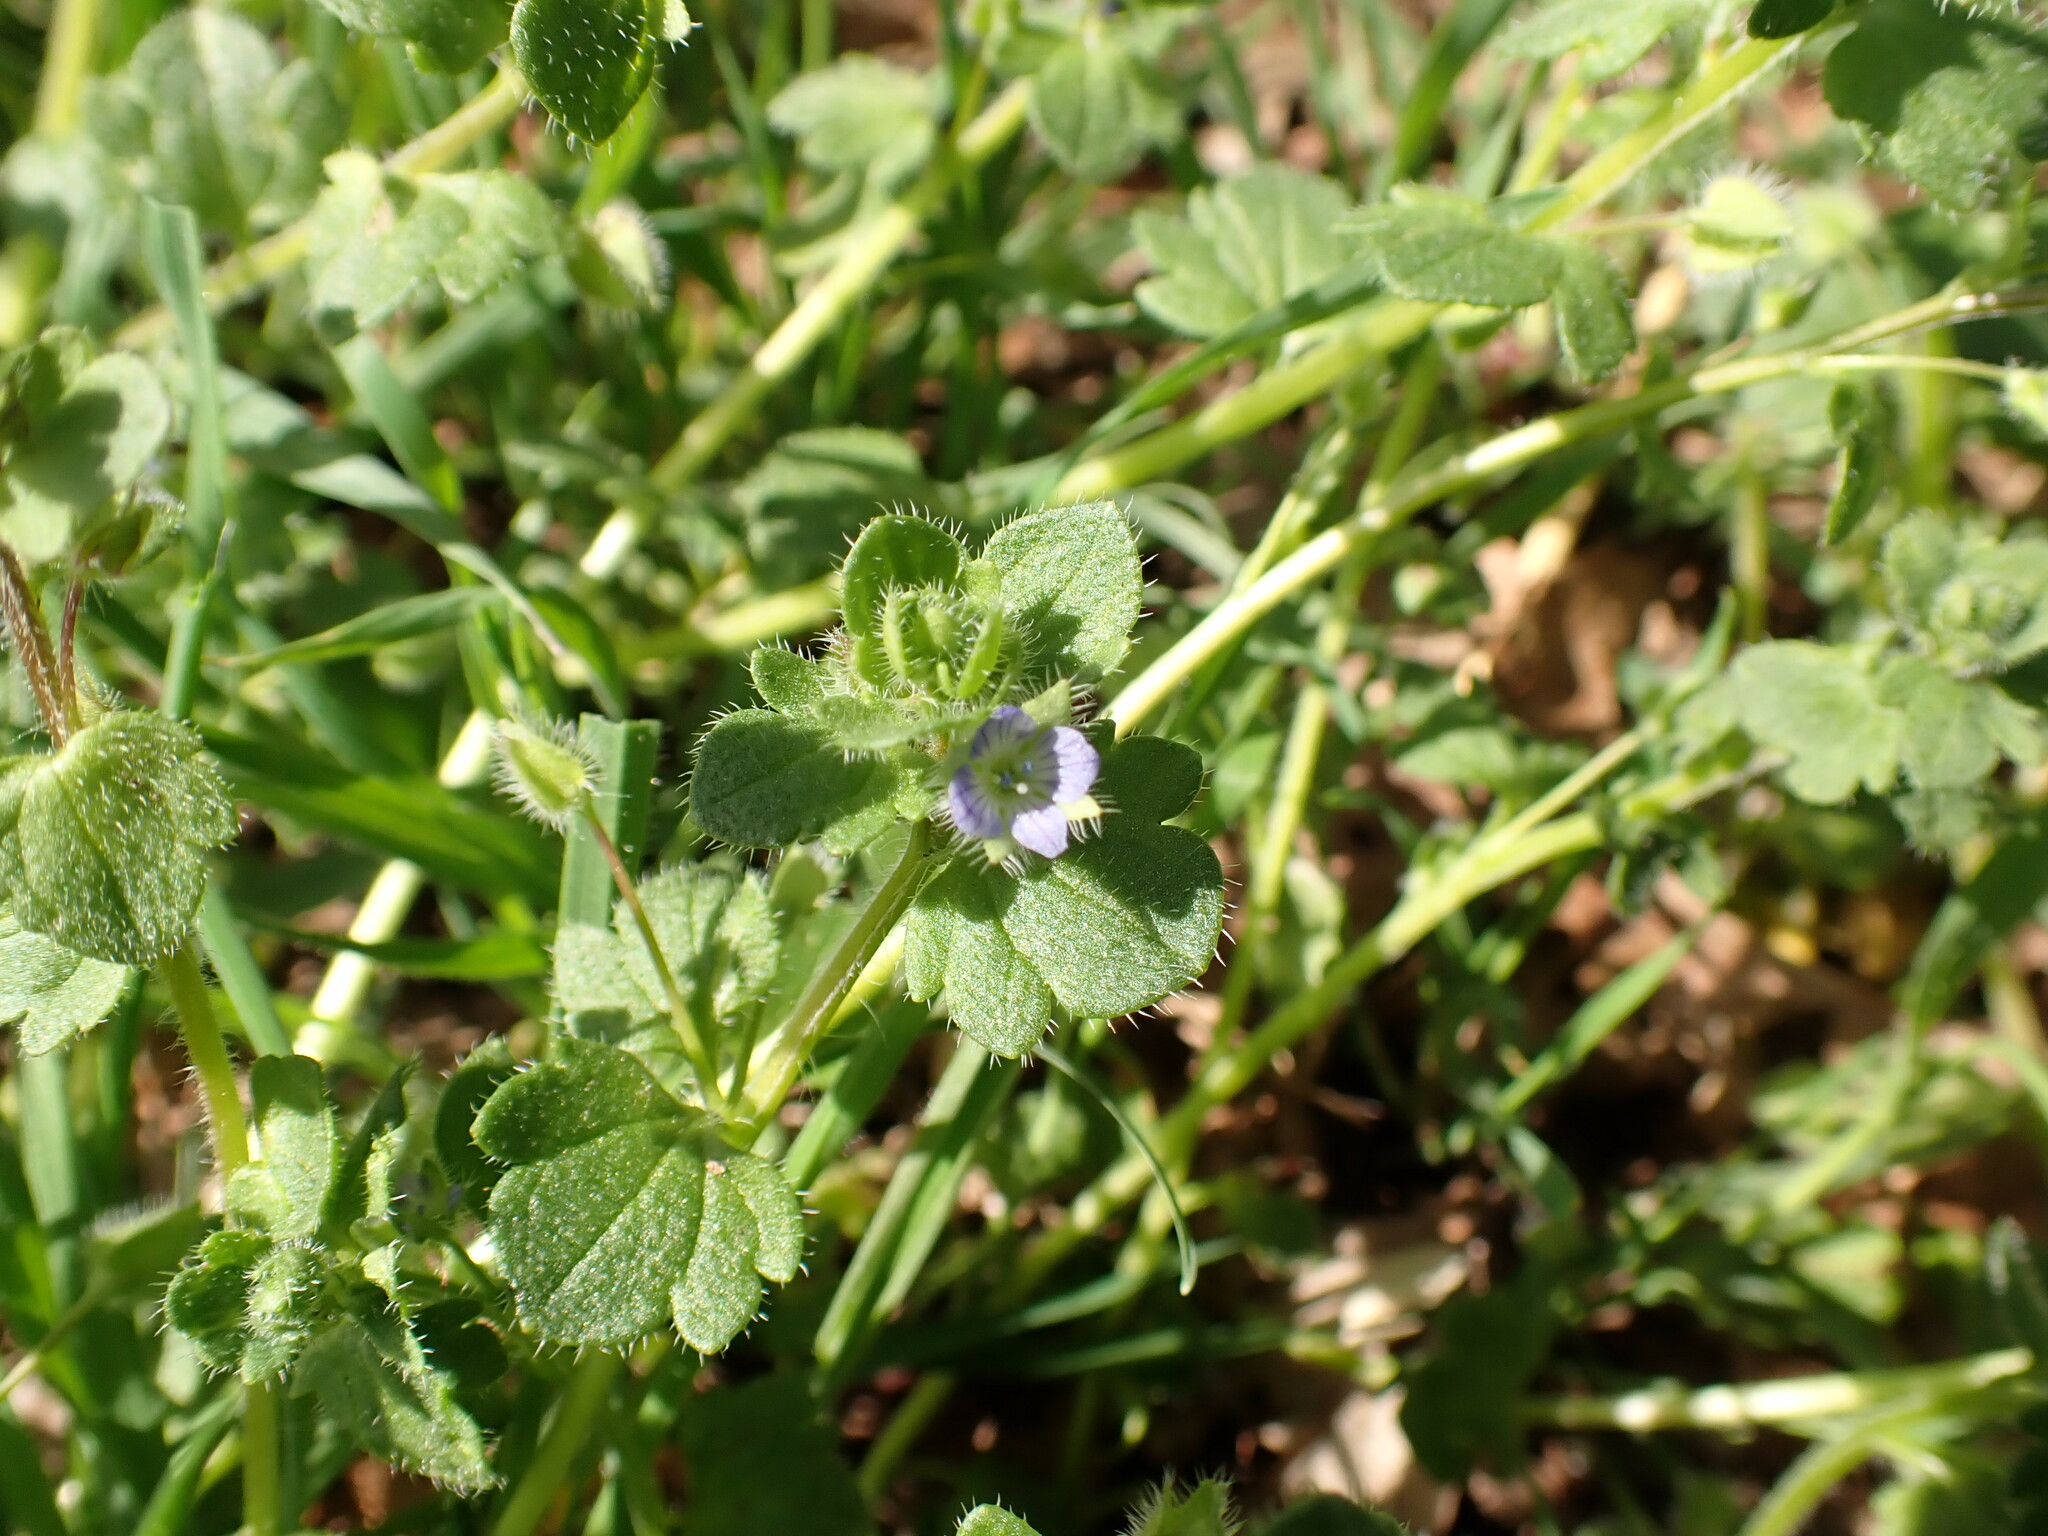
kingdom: Plantae
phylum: Tracheophyta
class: Magnoliopsida
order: Lamiales
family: Plantaginaceae
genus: Veronica
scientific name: Veronica hederifolia
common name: Ivy-leaved speedwell
